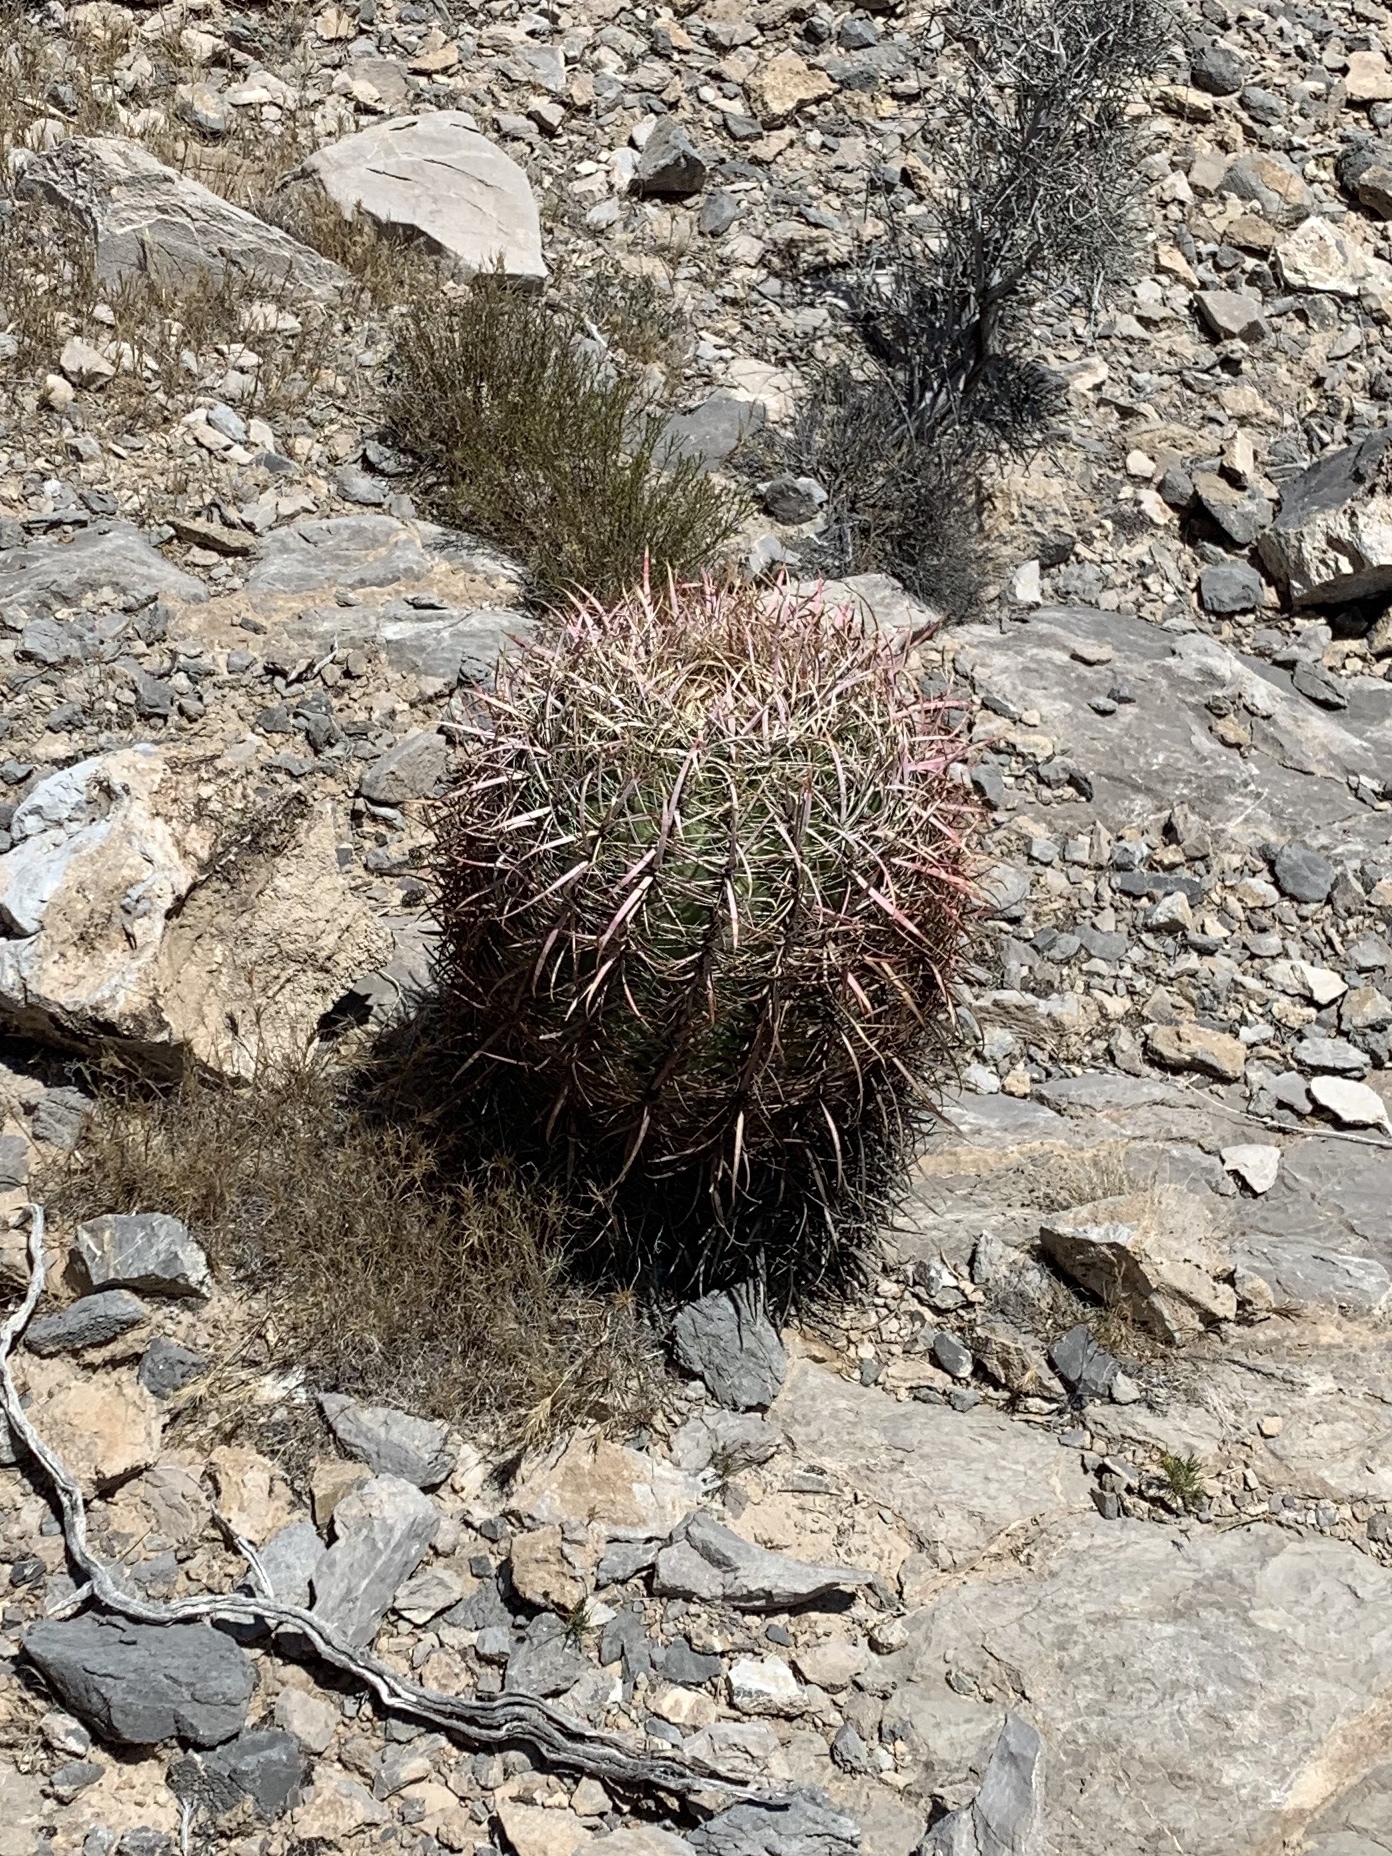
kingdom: Plantae
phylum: Tracheophyta
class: Magnoliopsida
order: Caryophyllales
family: Cactaceae
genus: Ferocactus
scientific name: Ferocactus cylindraceus
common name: California barrel cactus
